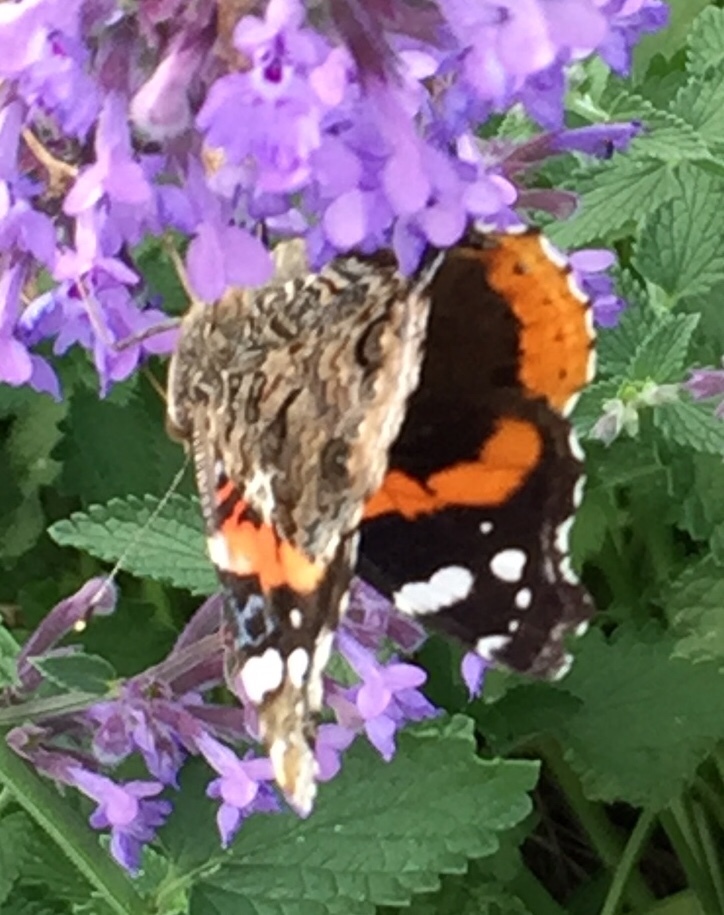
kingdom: Animalia
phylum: Arthropoda
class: Insecta
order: Lepidoptera
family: Nymphalidae
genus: Vanessa
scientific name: Vanessa atalanta
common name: Red admiral
